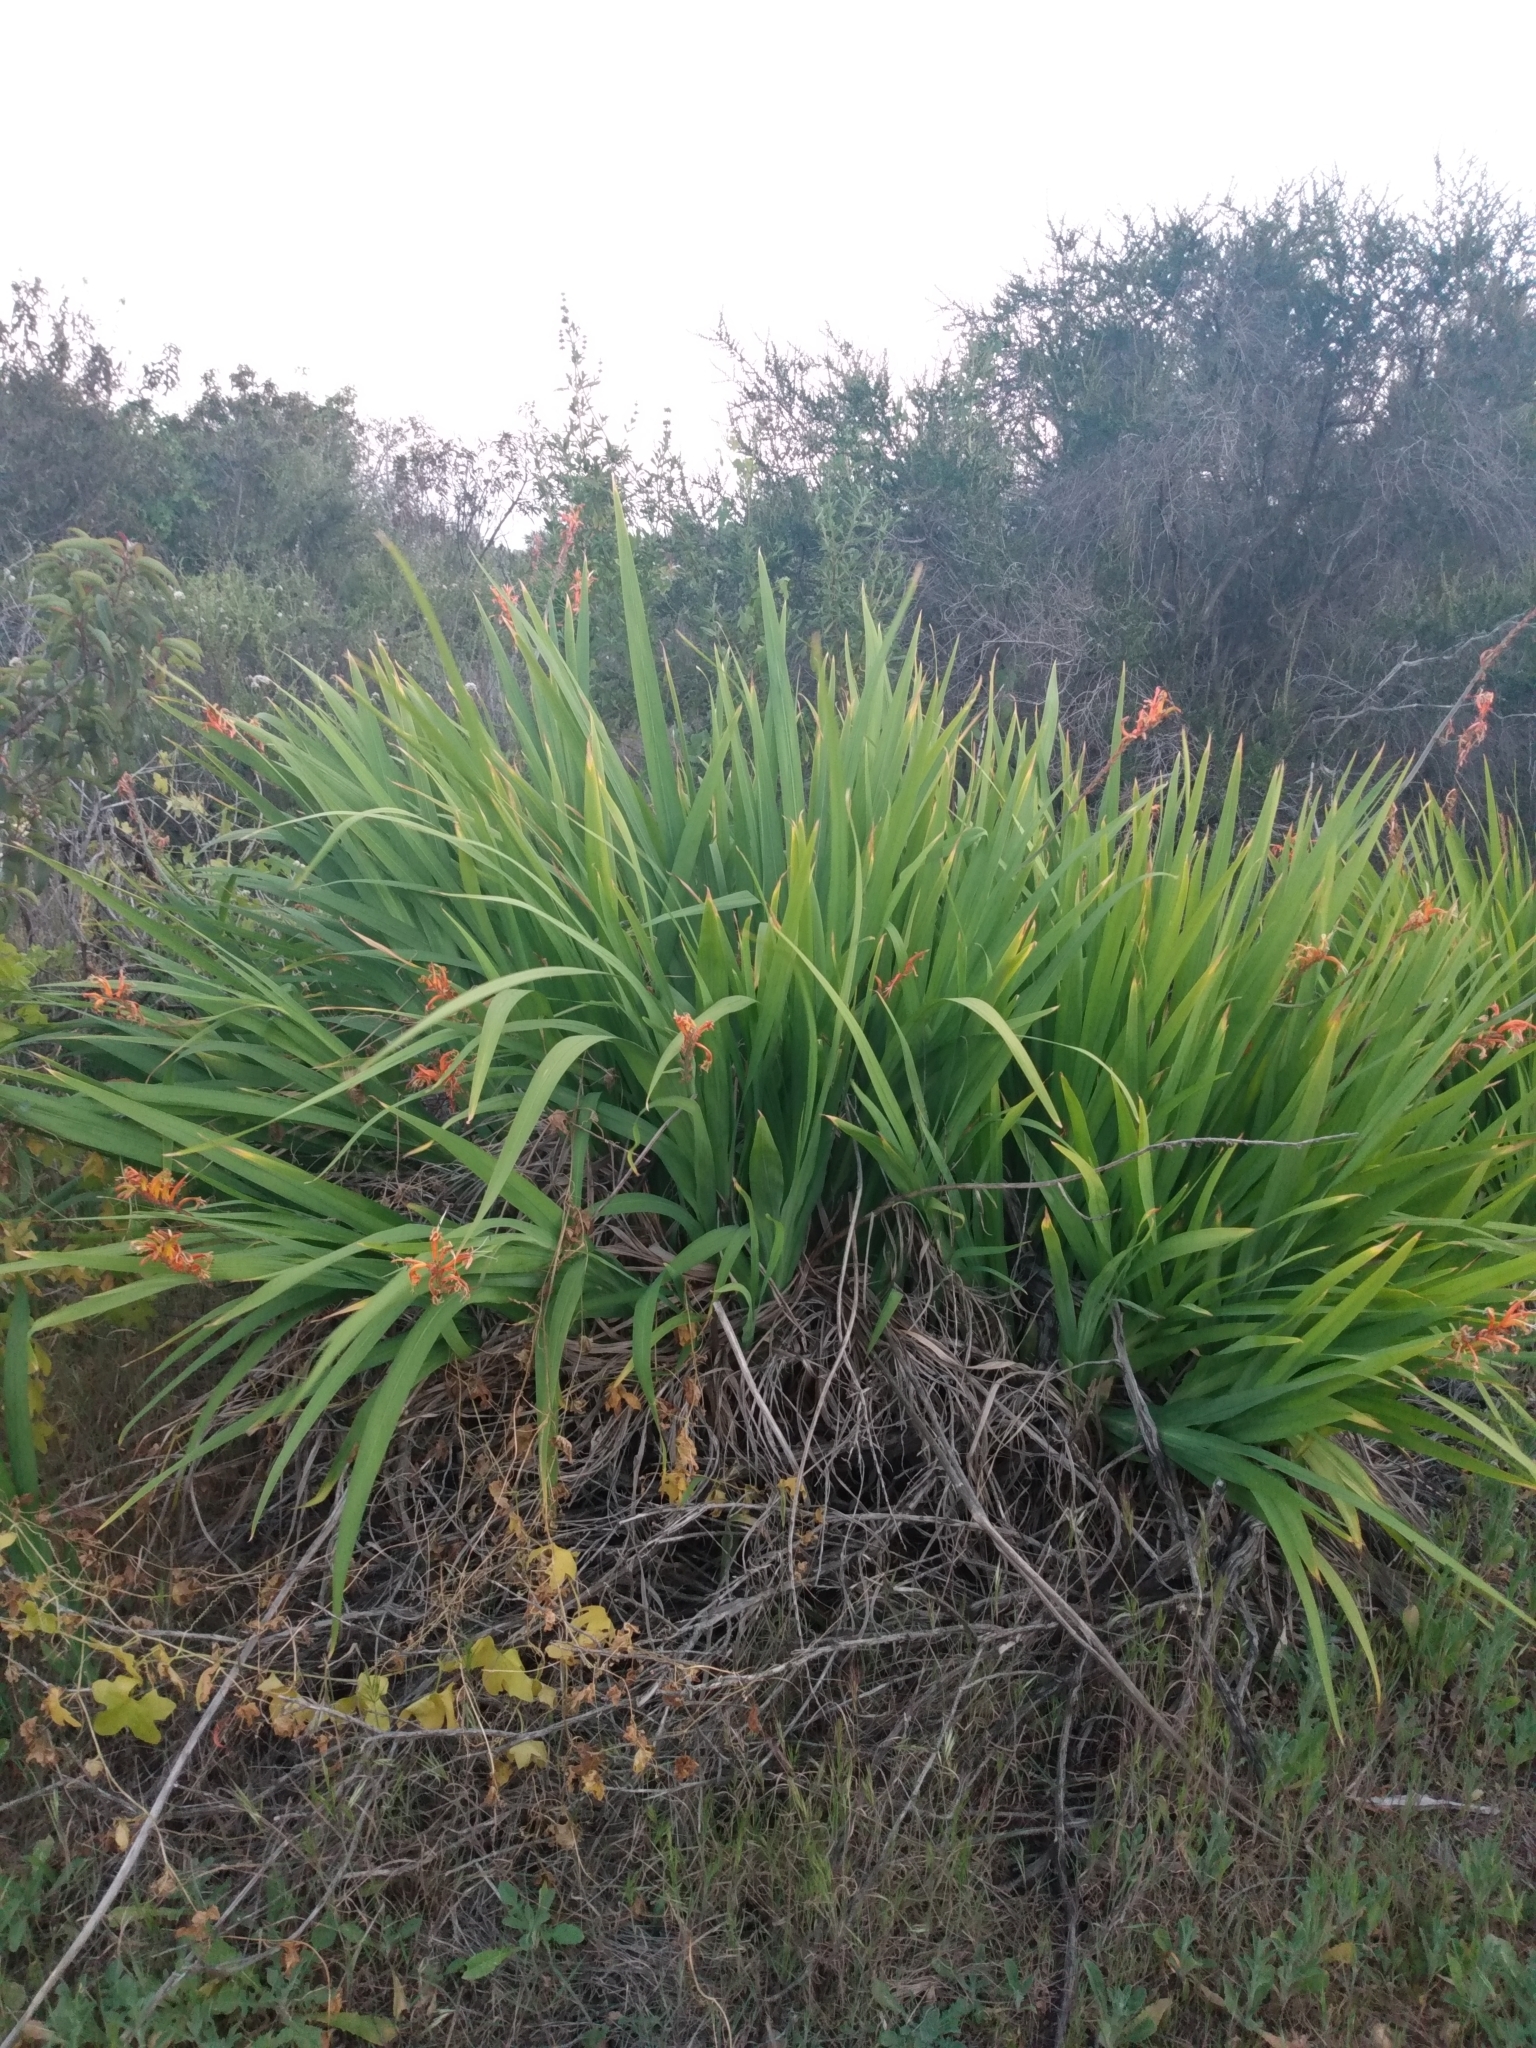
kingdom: Plantae
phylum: Tracheophyta
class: Liliopsida
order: Asparagales
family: Iridaceae
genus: Chasmanthe
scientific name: Chasmanthe floribunda
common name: African cornflag
